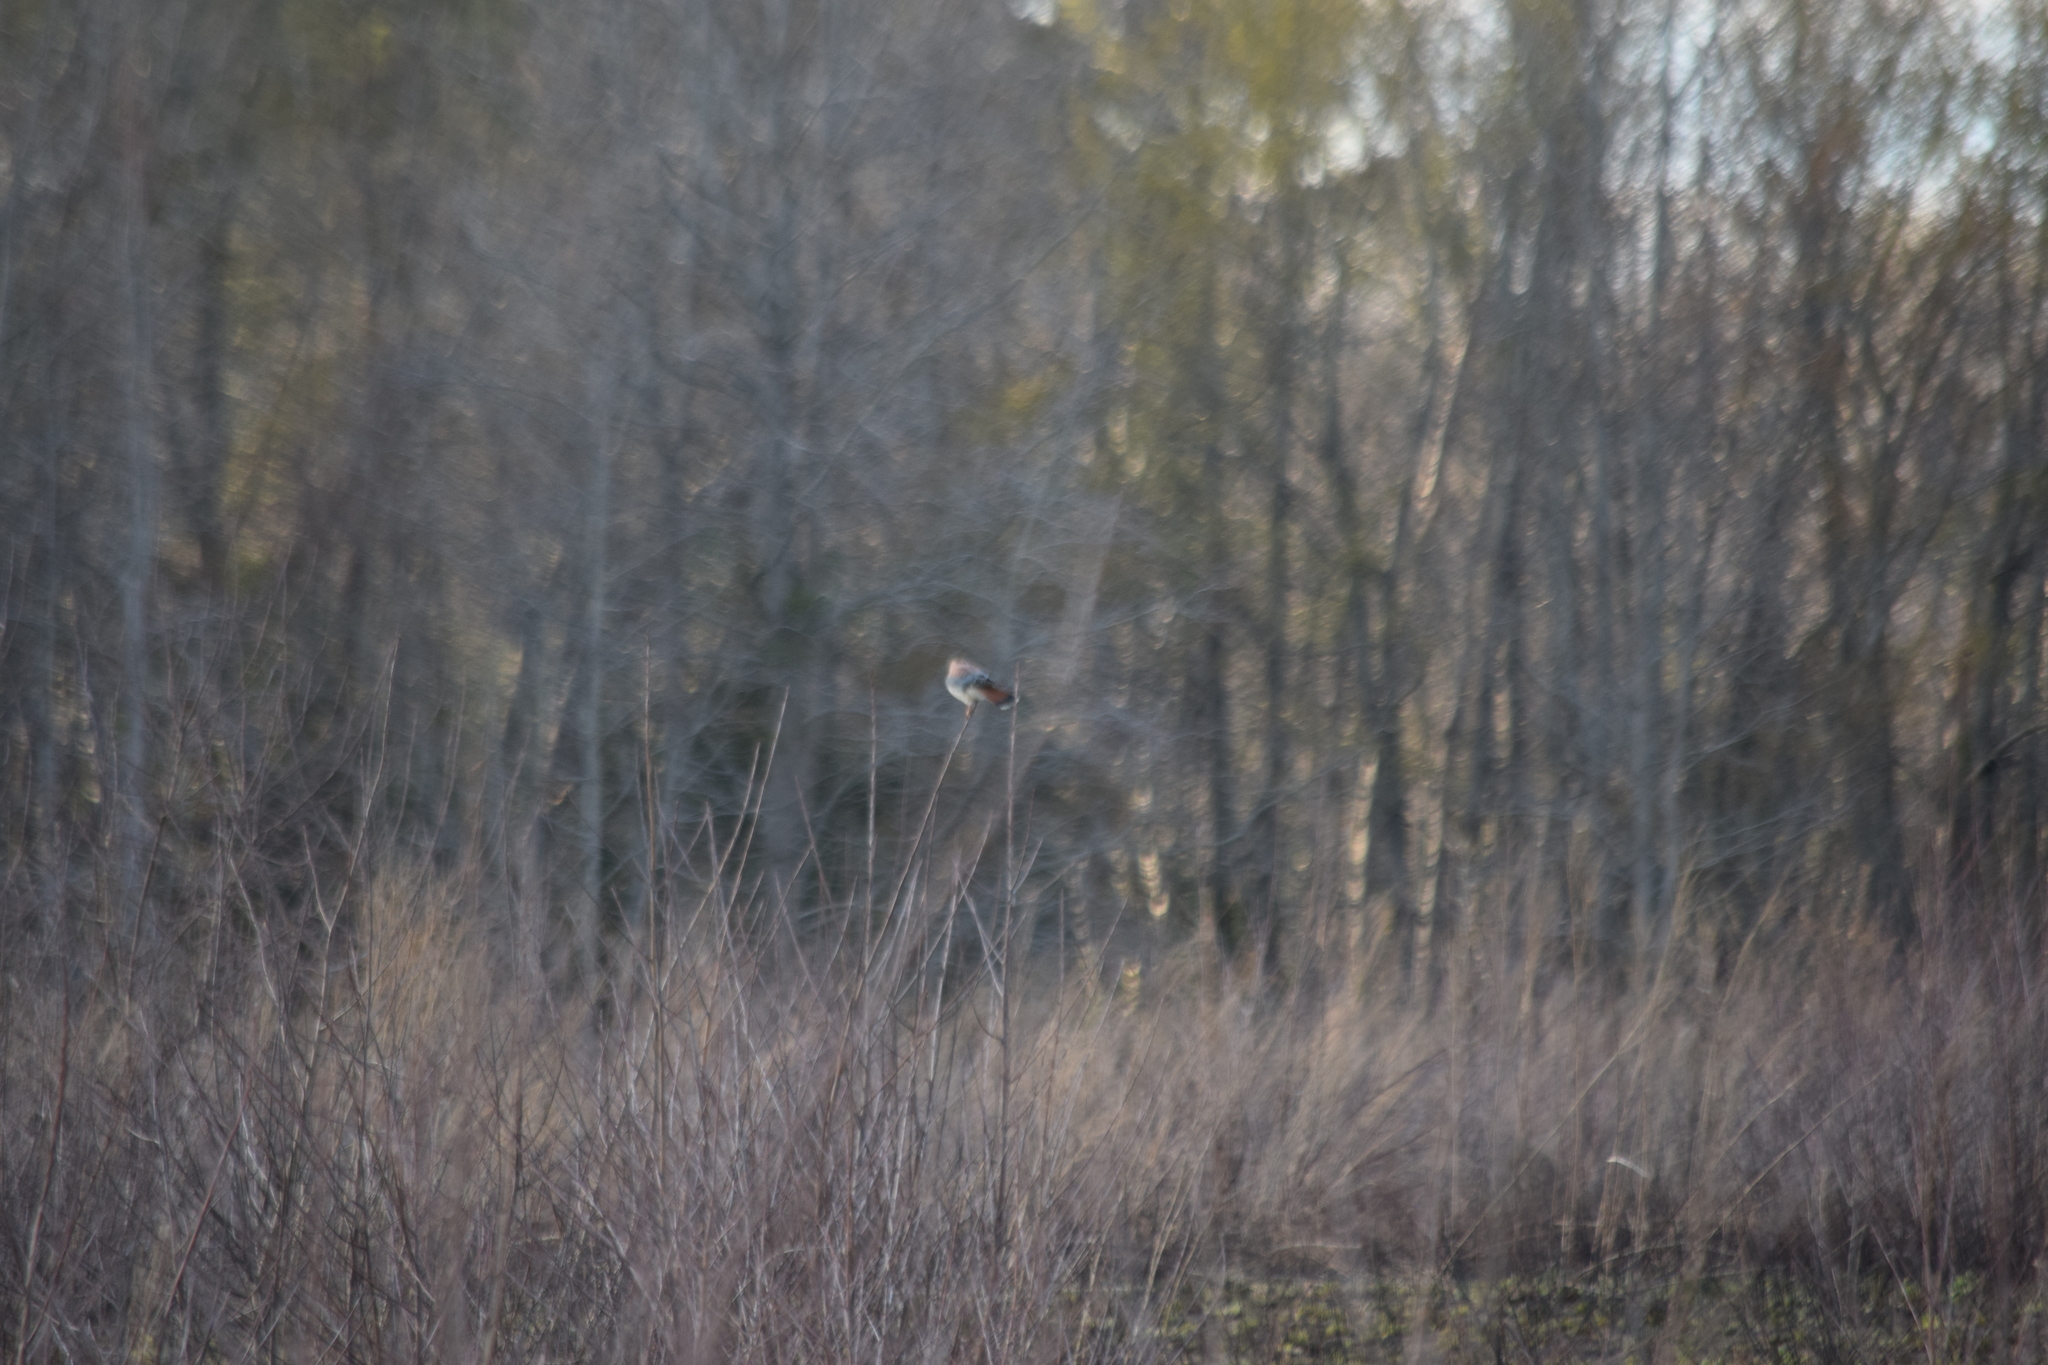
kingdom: Animalia
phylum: Chordata
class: Aves
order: Falconiformes
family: Falconidae
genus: Falco
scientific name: Falco sparverius
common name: American kestrel
